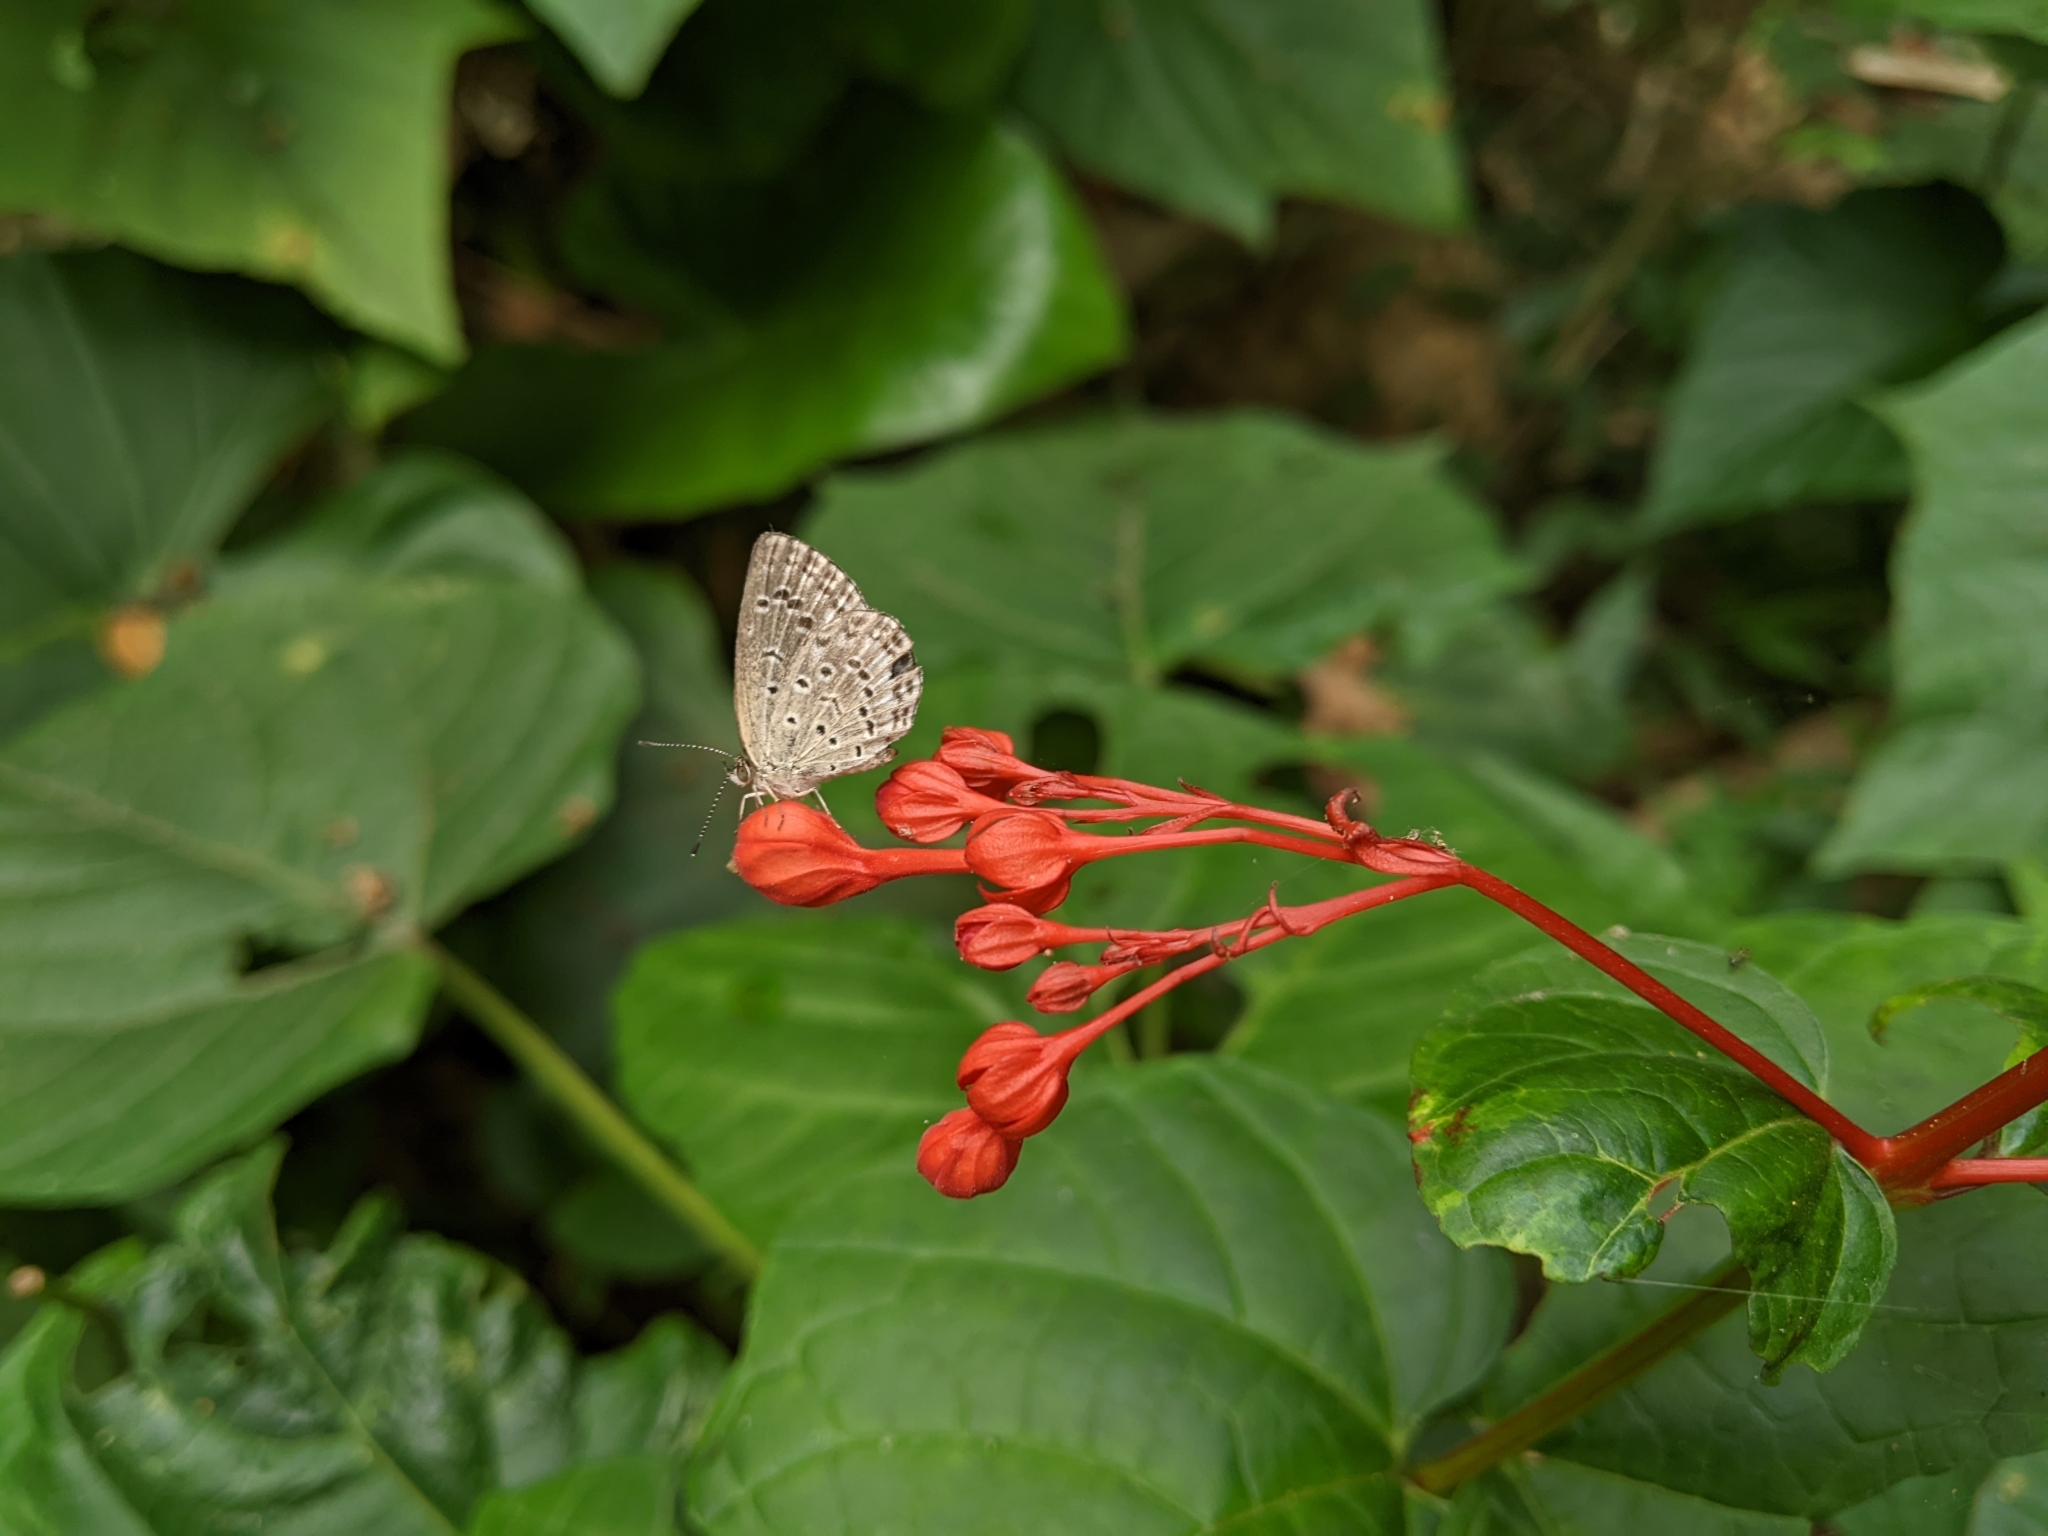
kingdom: Animalia
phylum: Arthropoda
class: Insecta
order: Lepidoptera
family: Lycaenidae
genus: Pseudozizeeria
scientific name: Pseudozizeeria maha
